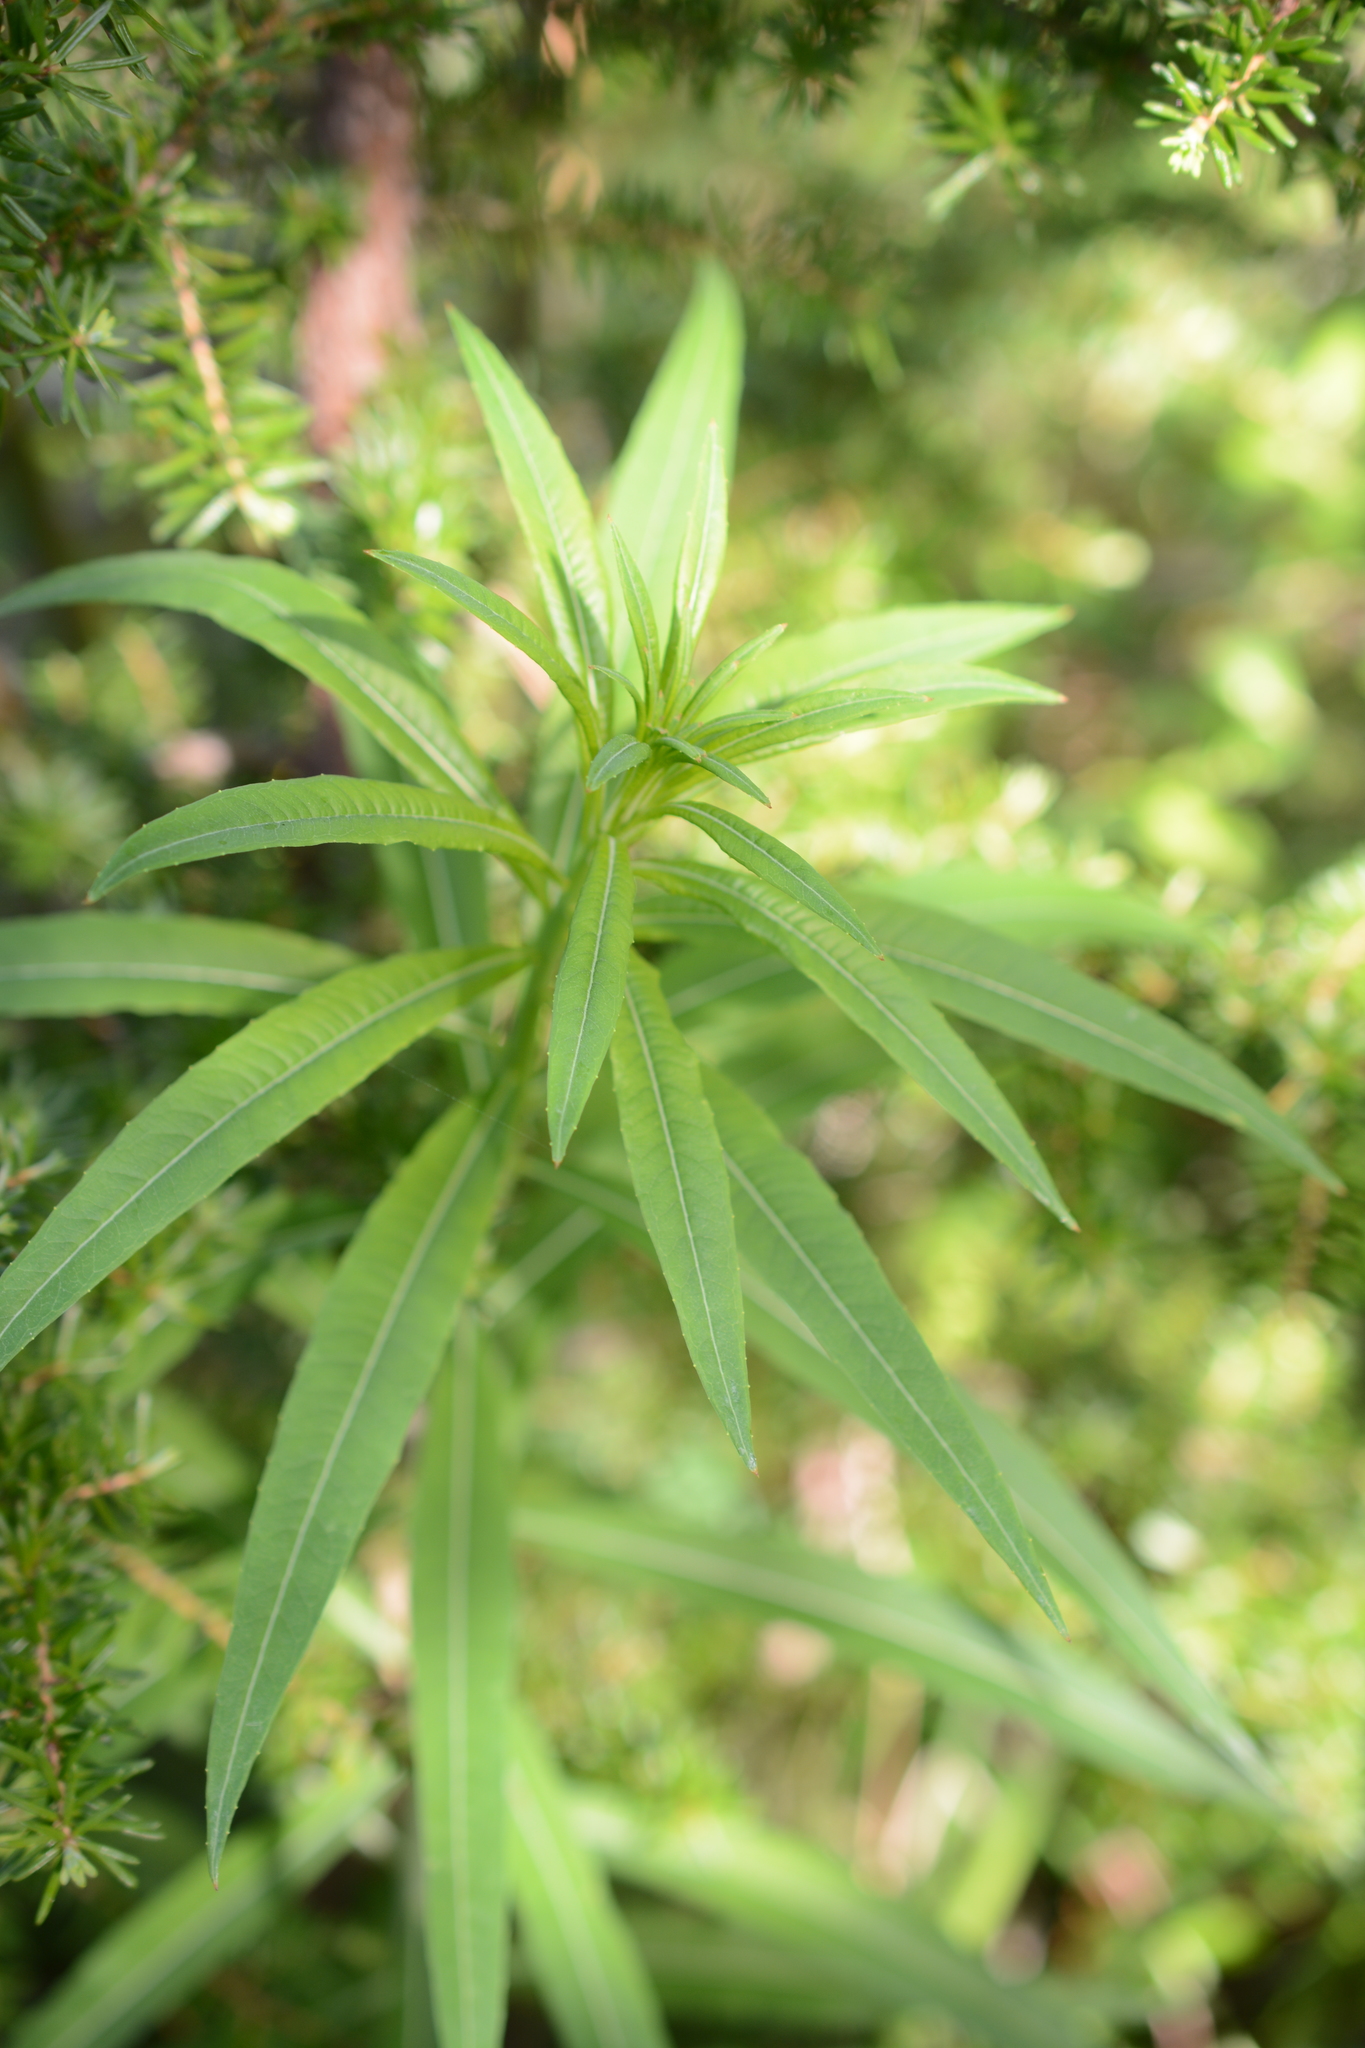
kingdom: Plantae
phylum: Tracheophyta
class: Magnoliopsida
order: Myrtales
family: Onagraceae
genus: Chamaenerion
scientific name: Chamaenerion angustifolium
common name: Fireweed
